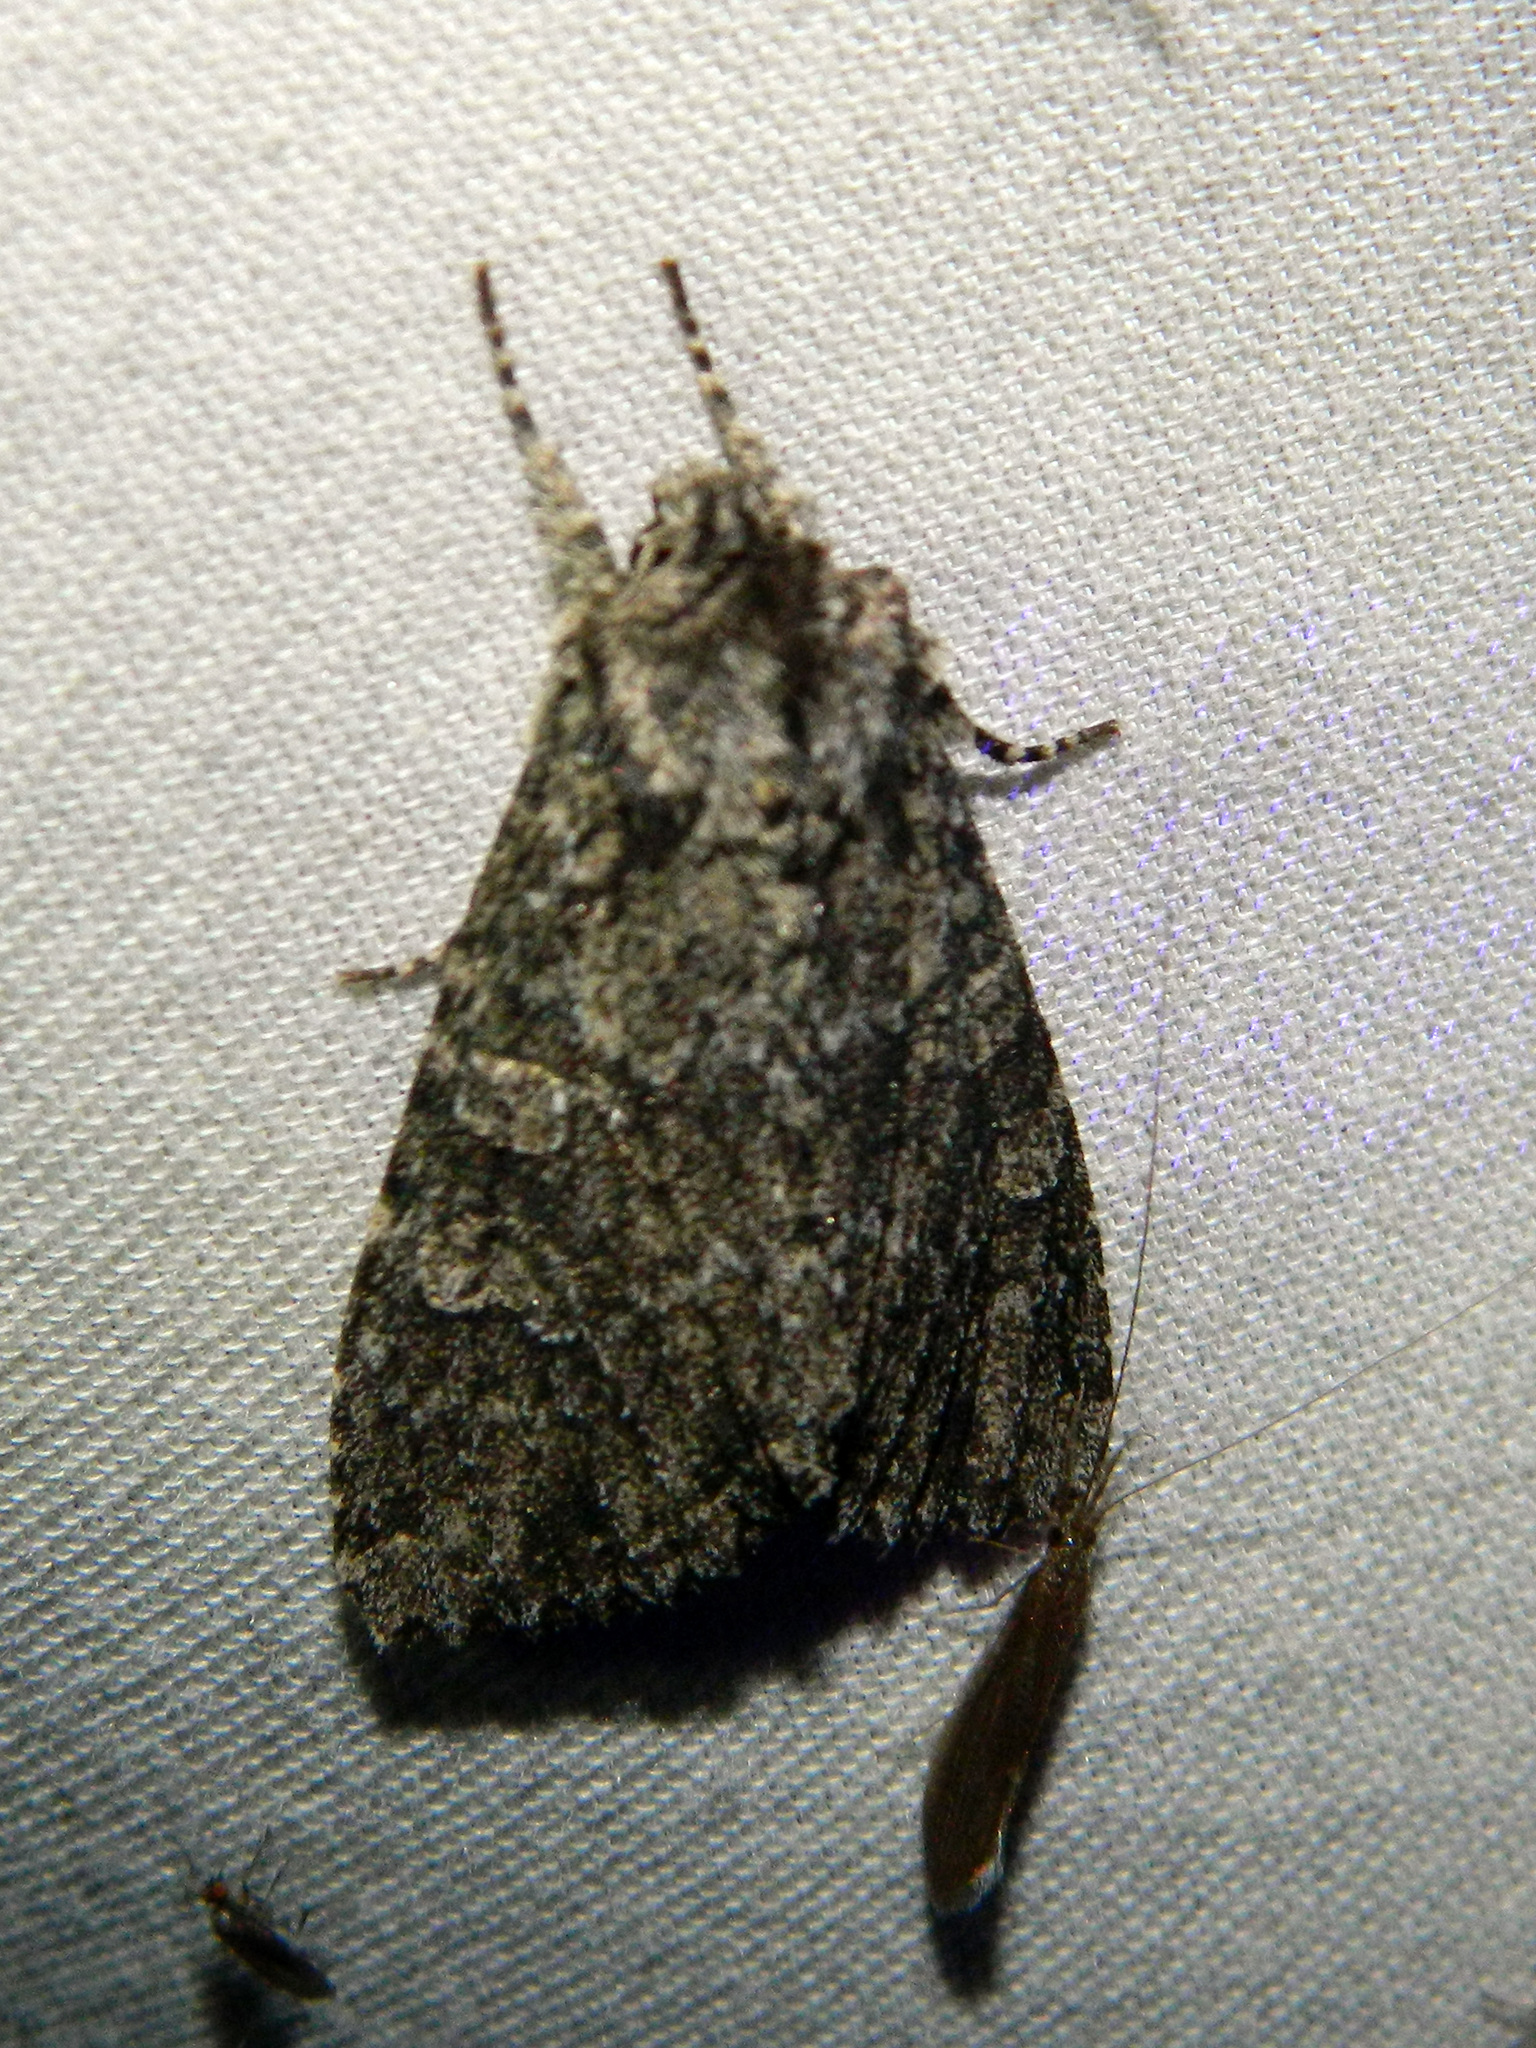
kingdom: Animalia
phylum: Arthropoda
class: Insecta
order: Lepidoptera
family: Noctuidae
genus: Polia
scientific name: Polia rogenhoferi
